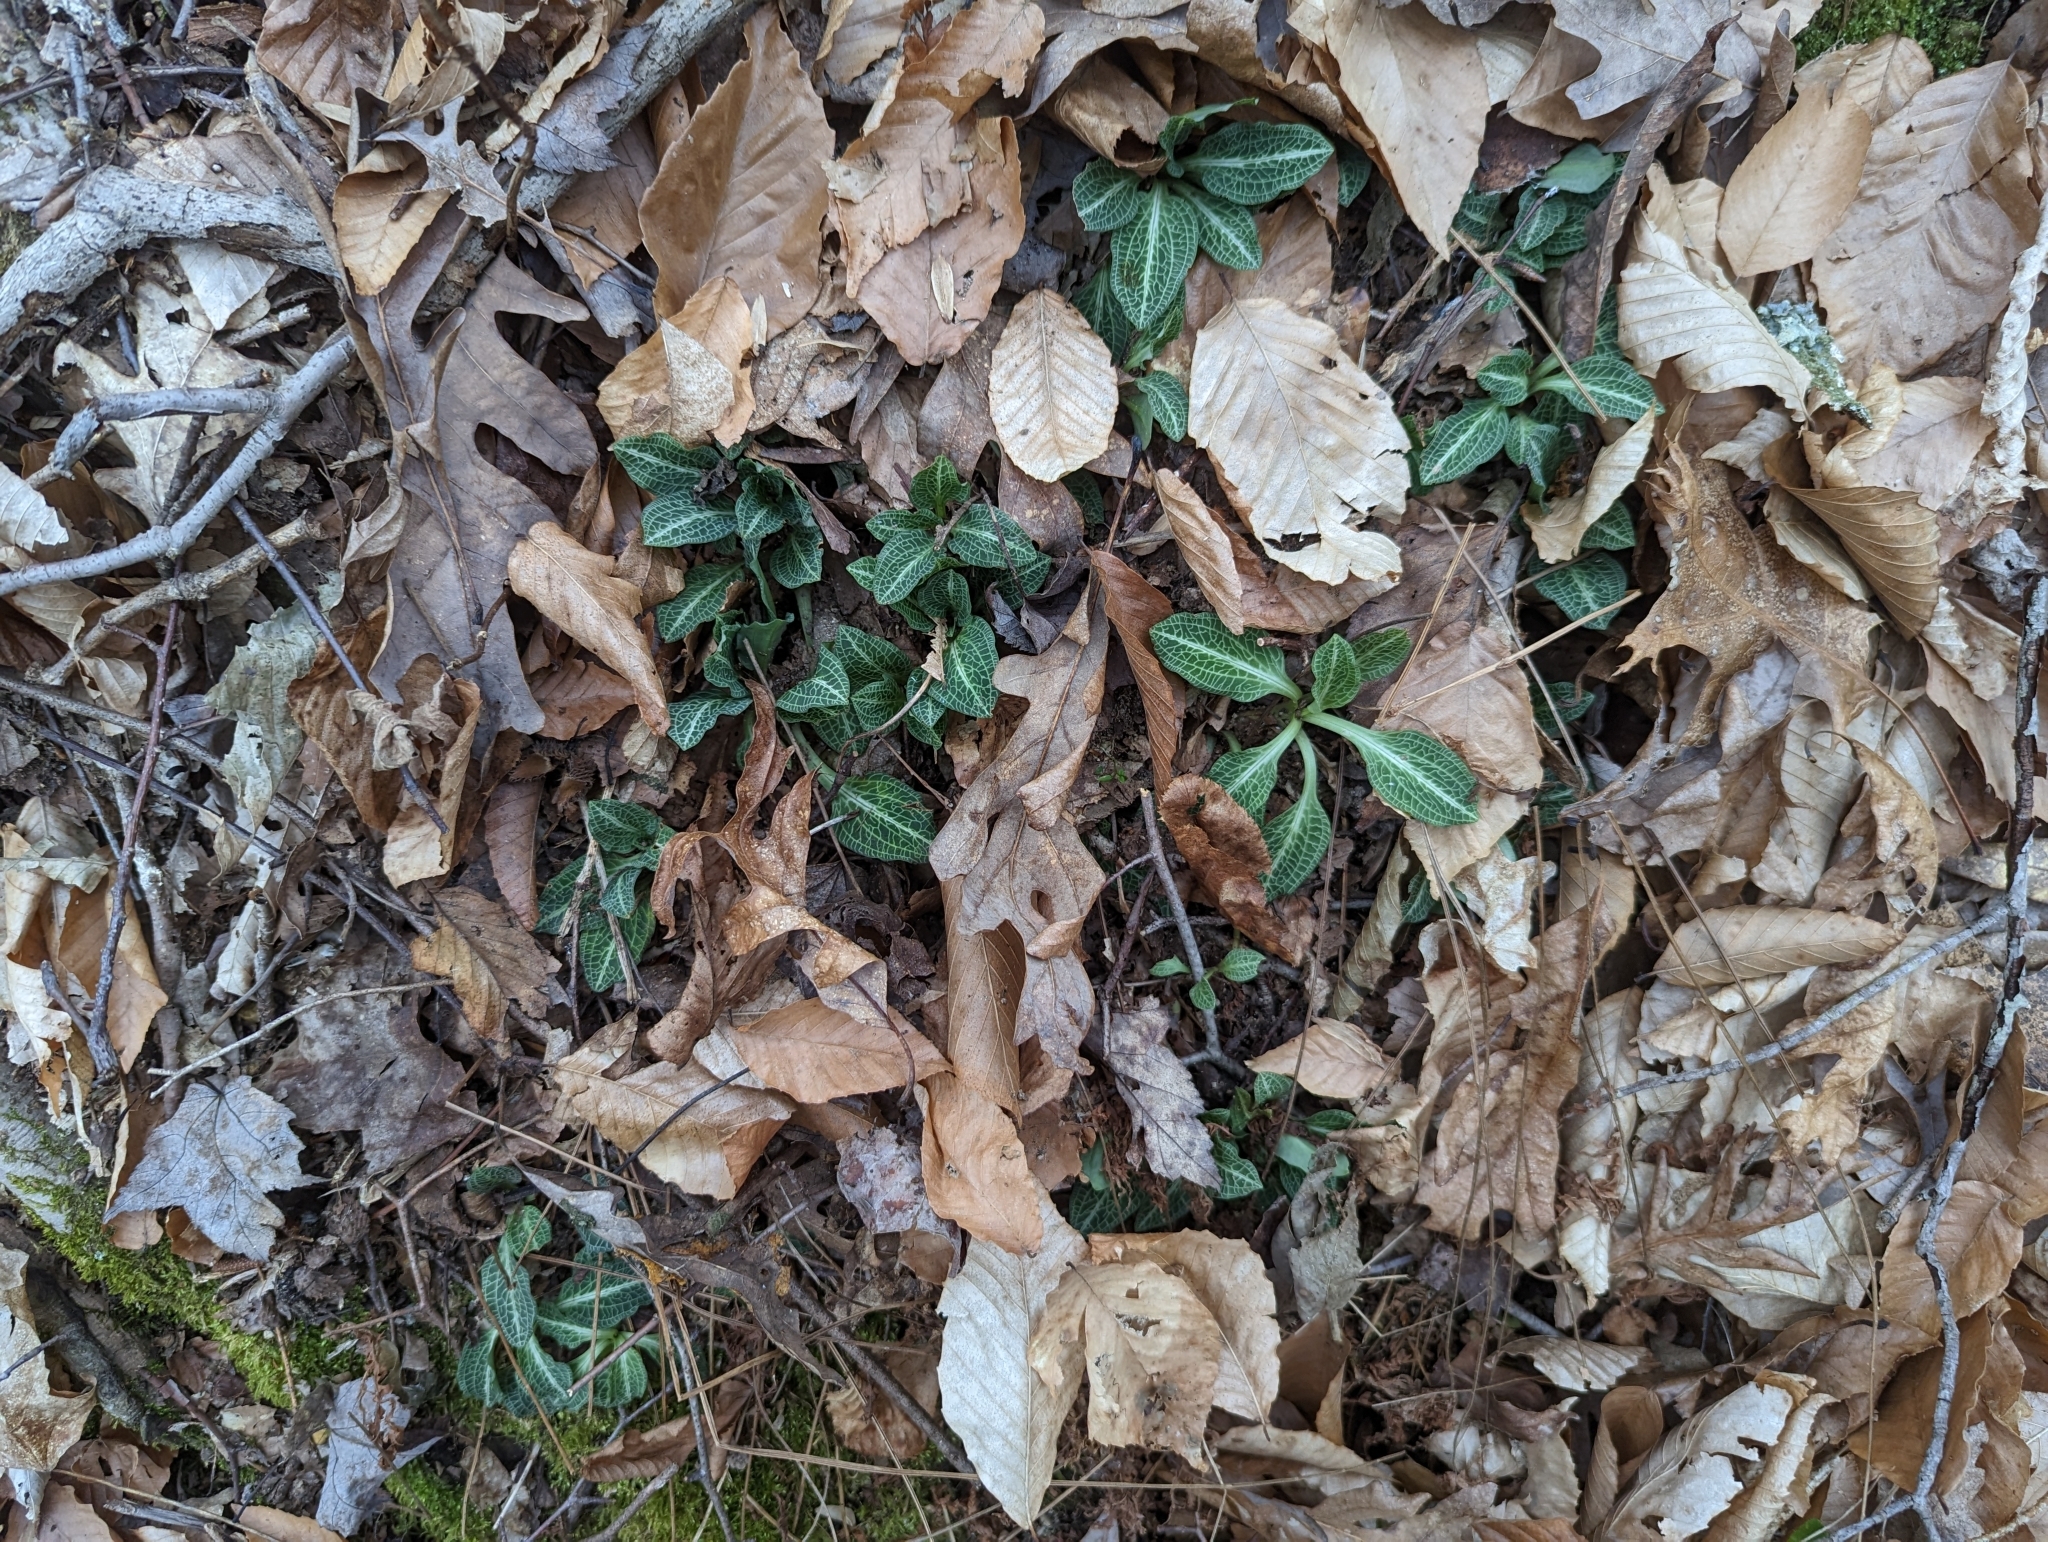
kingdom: Plantae
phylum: Tracheophyta
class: Liliopsida
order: Asparagales
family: Orchidaceae
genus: Goodyera
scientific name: Goodyera pubescens
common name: Downy rattlesnake-plantain
